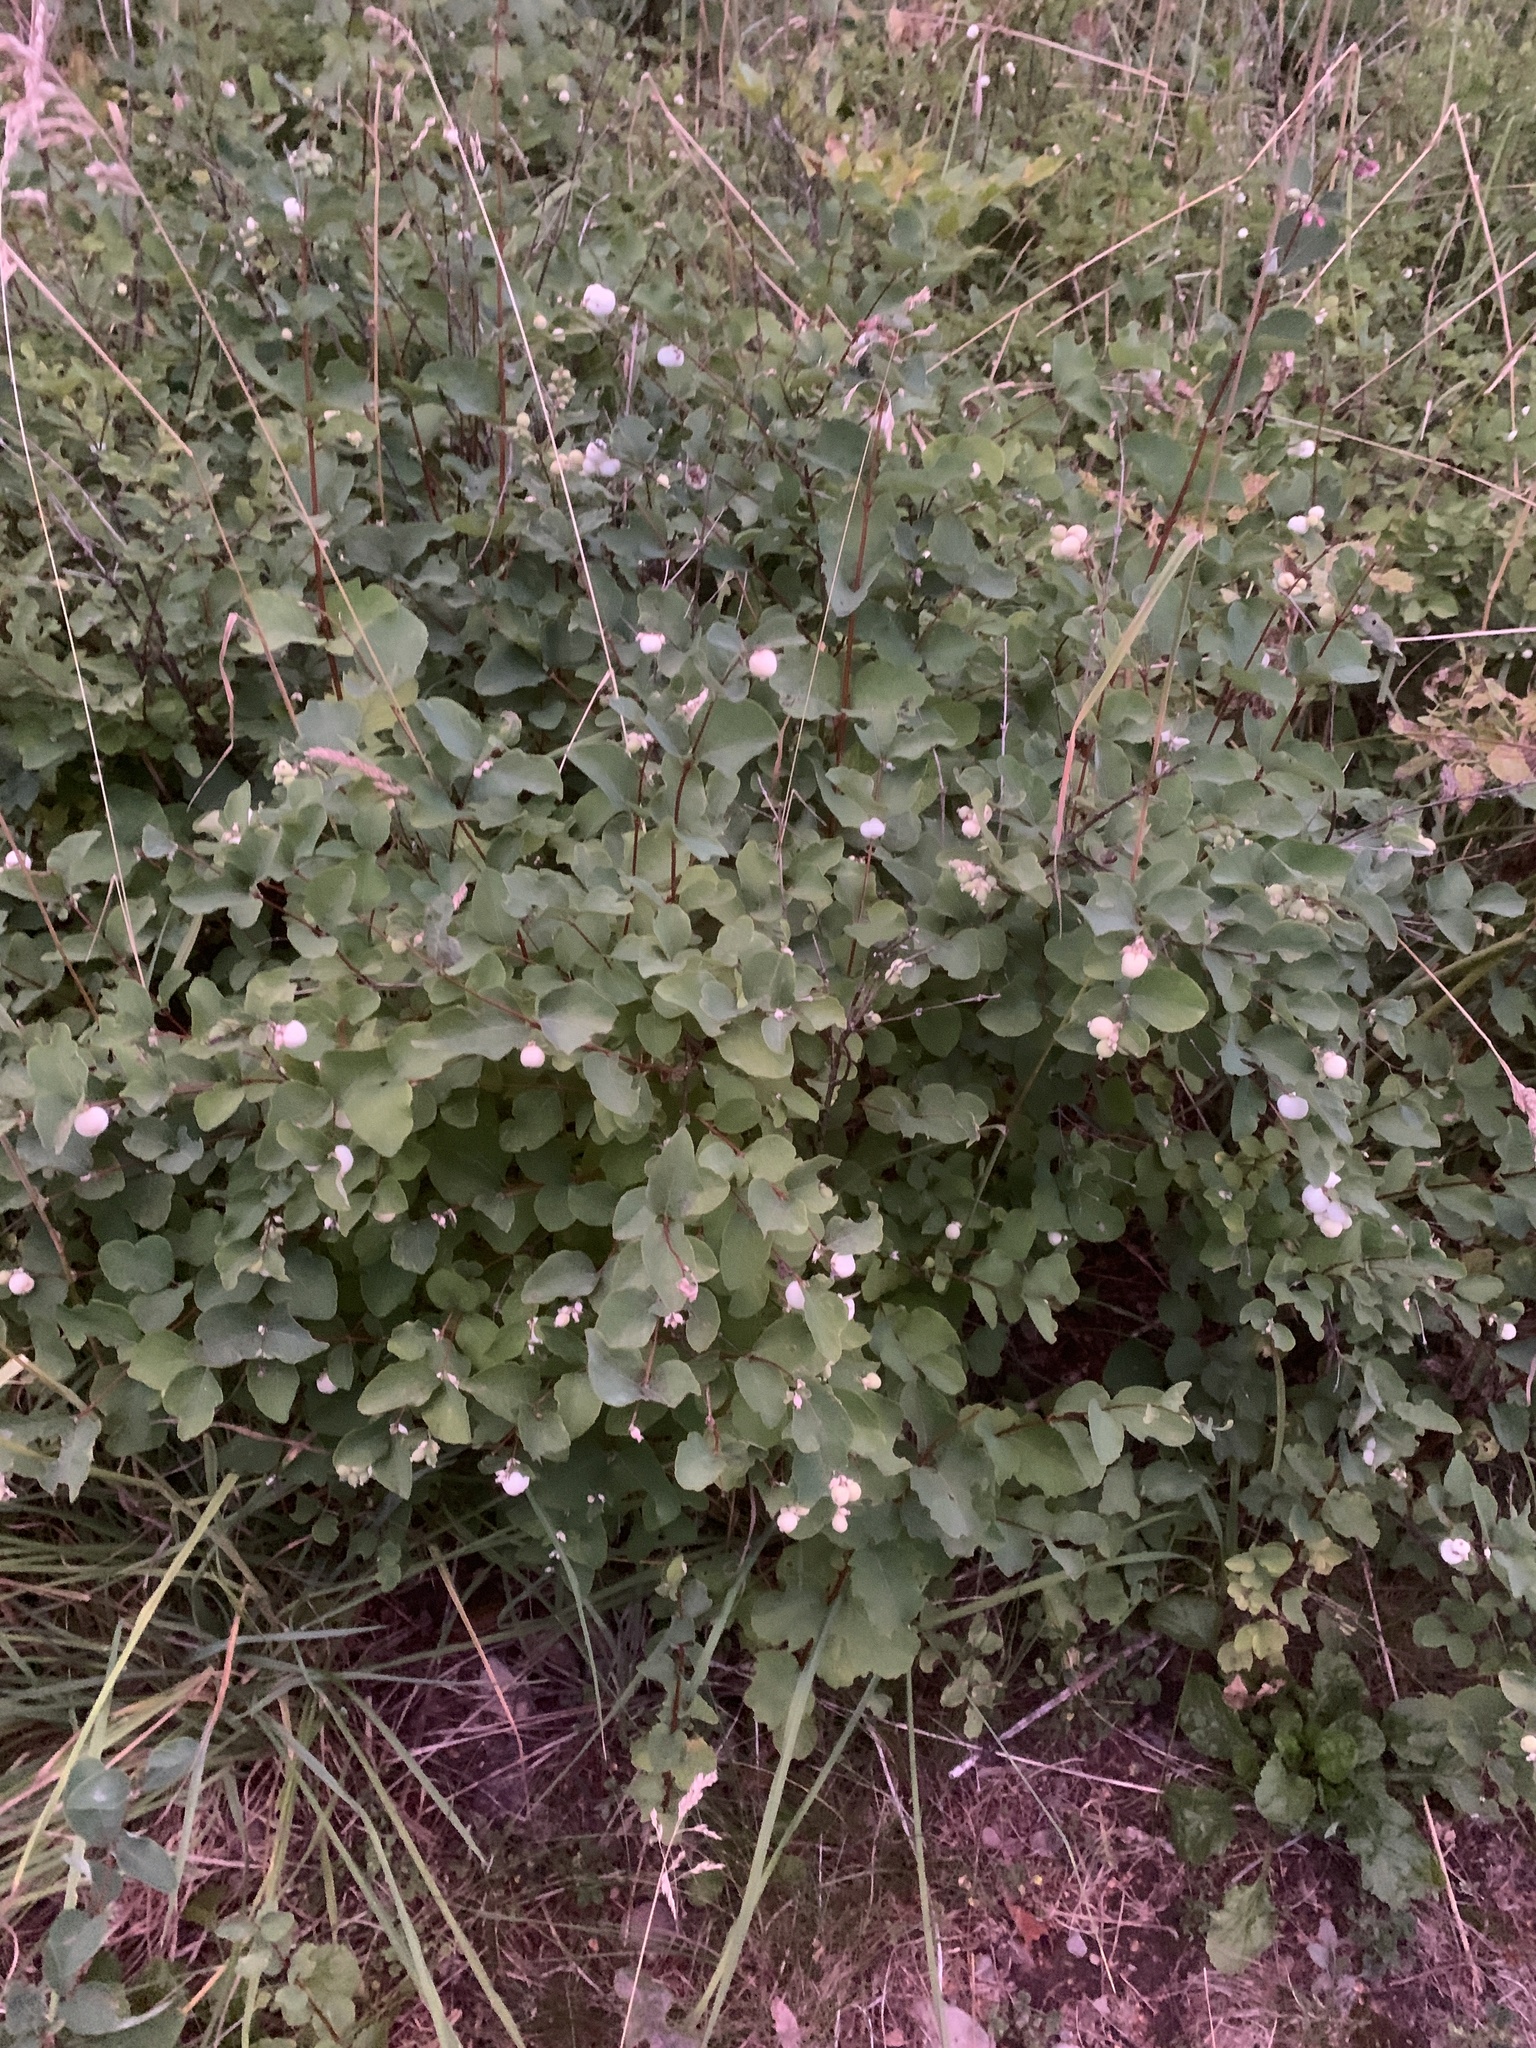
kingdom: Plantae
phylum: Tracheophyta
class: Magnoliopsida
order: Dipsacales
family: Caprifoliaceae
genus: Symphoricarpos
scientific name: Symphoricarpos albus
